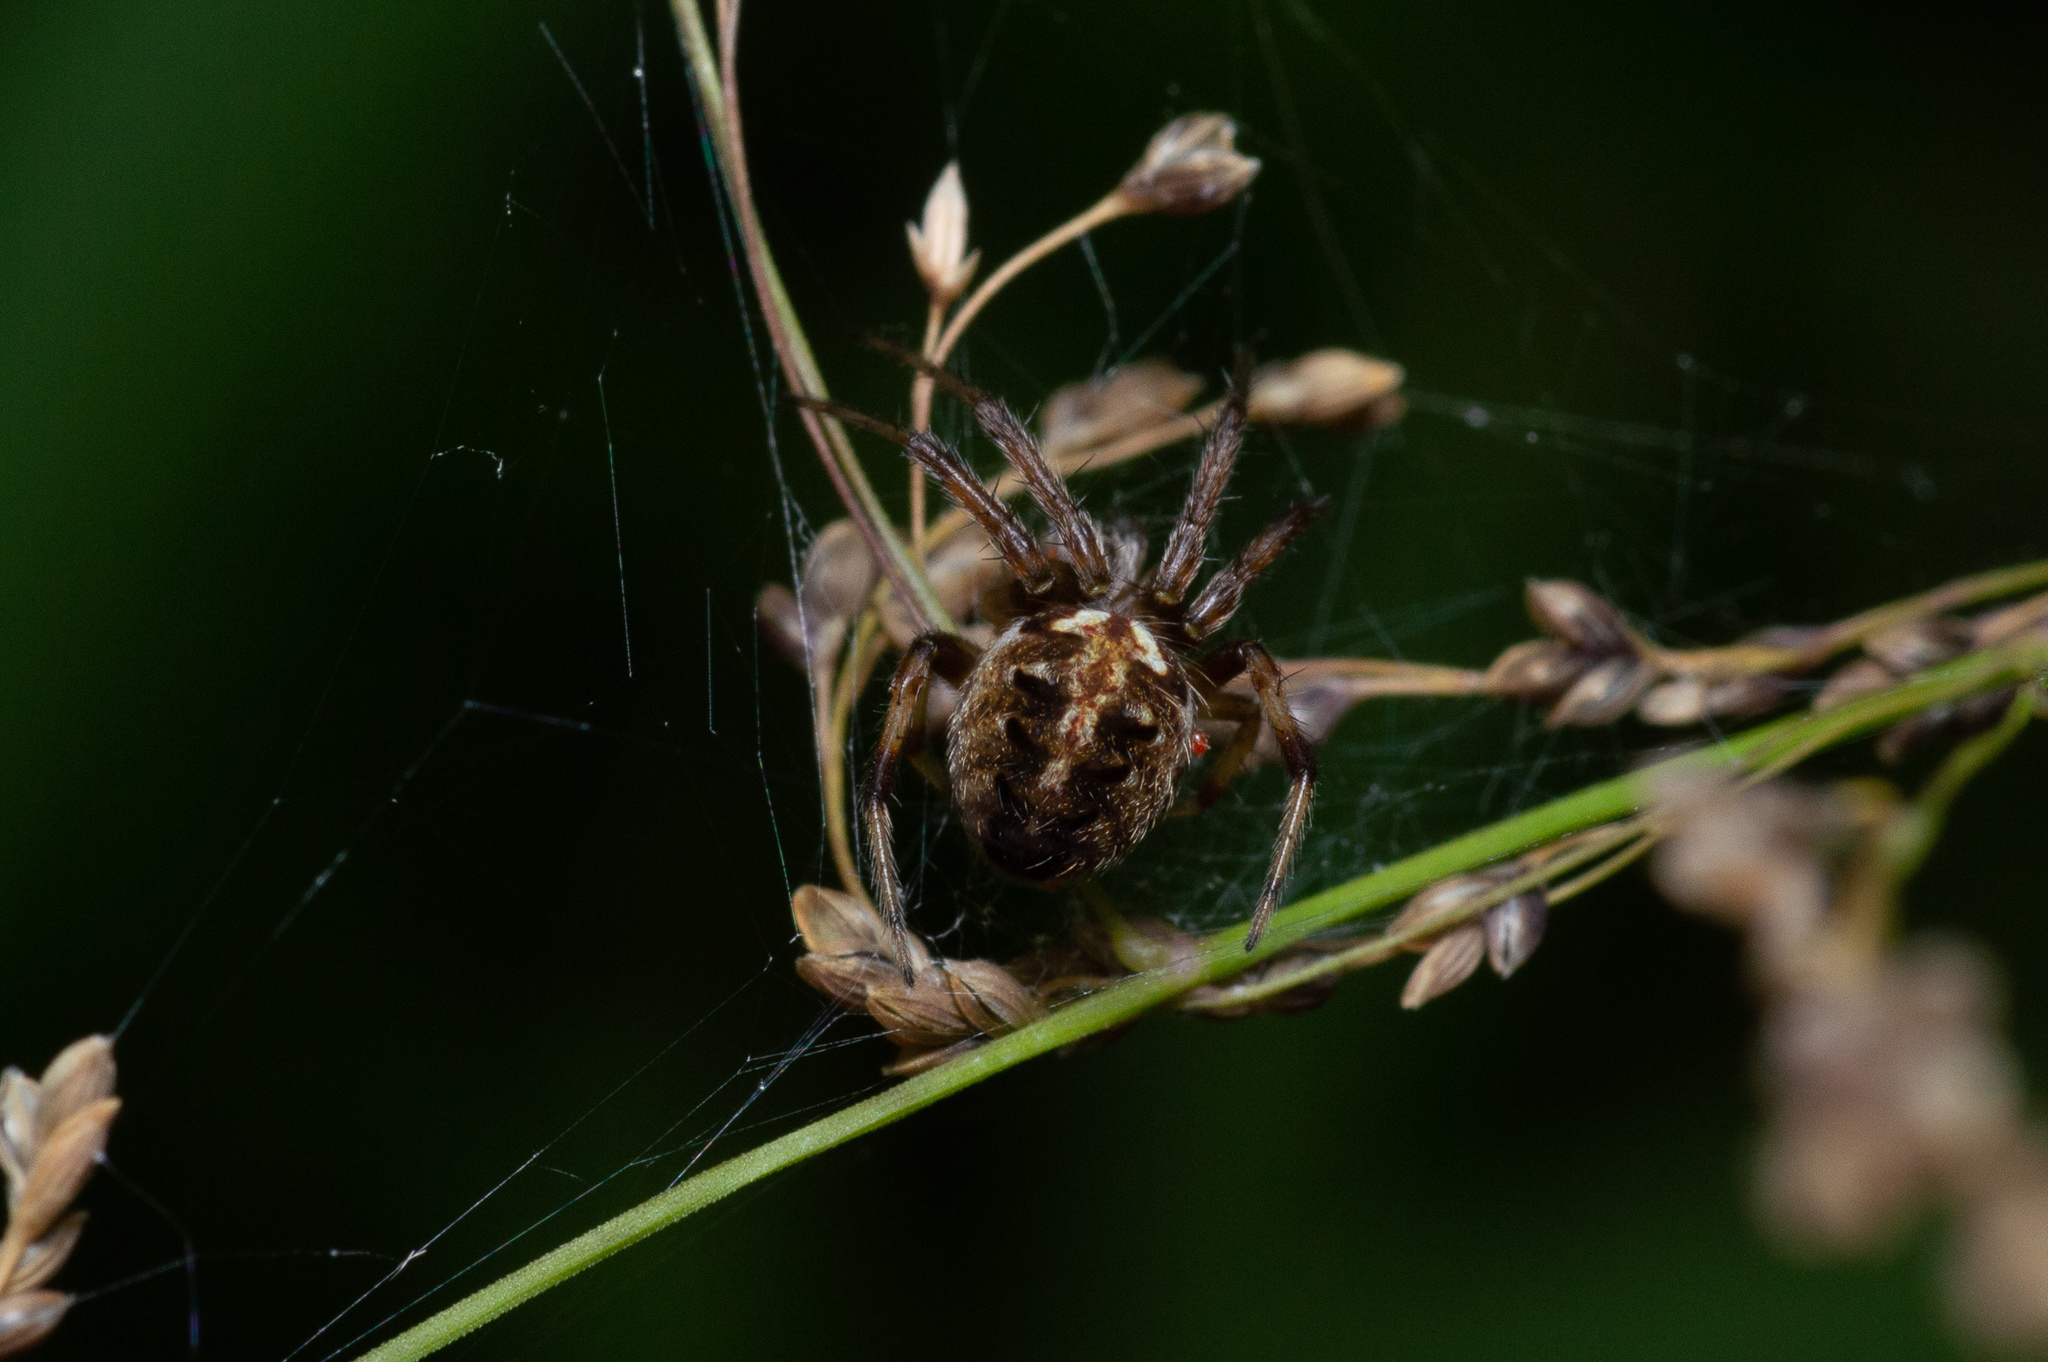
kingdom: Animalia
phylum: Arthropoda
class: Arachnida
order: Araneae
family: Araneidae
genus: Neoscona
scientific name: Neoscona arabesca
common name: Orb weavers
